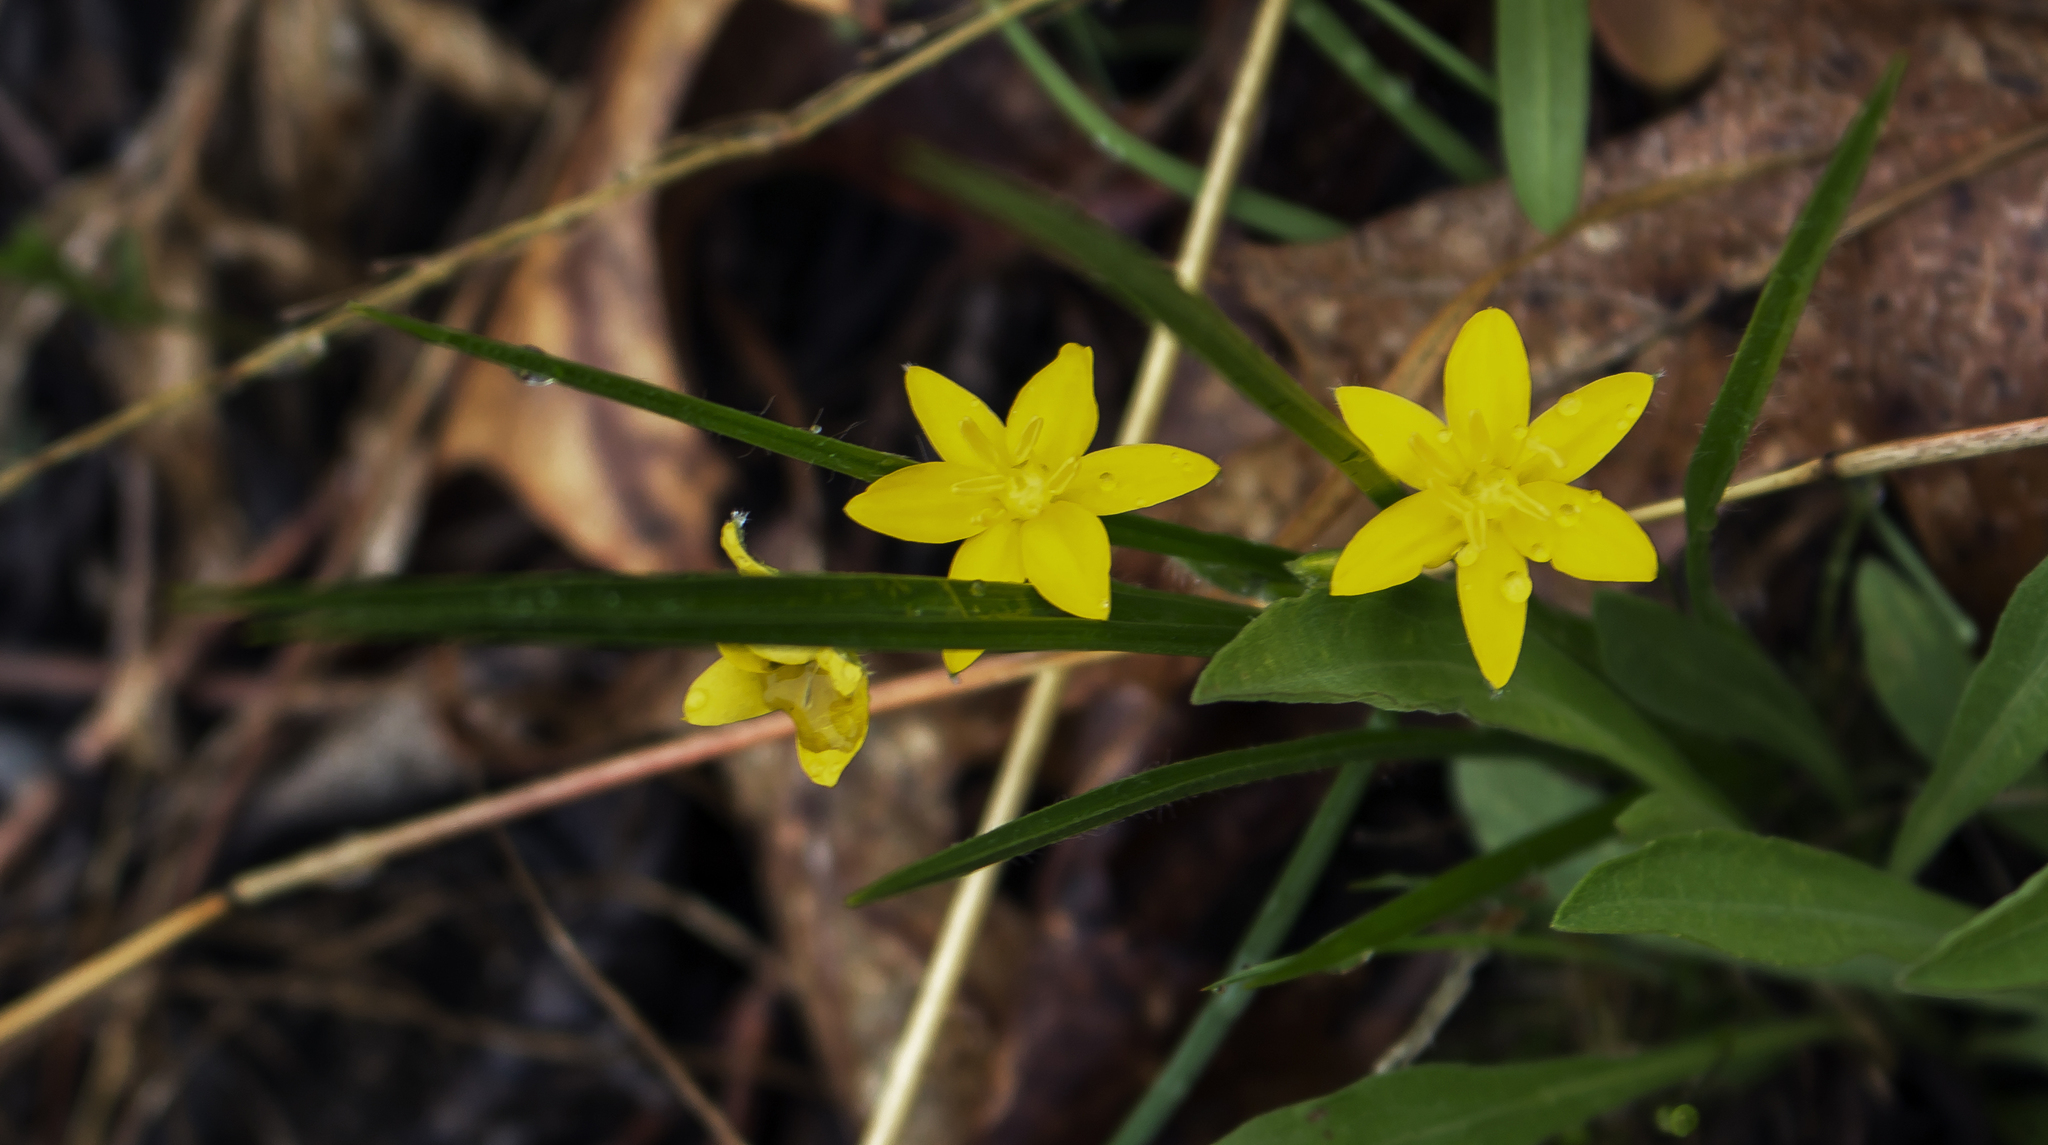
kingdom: Plantae
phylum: Tracheophyta
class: Liliopsida
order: Asparagales
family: Hypoxidaceae
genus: Hypoxis
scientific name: Hypoxis hirsuta
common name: Common goldstar
